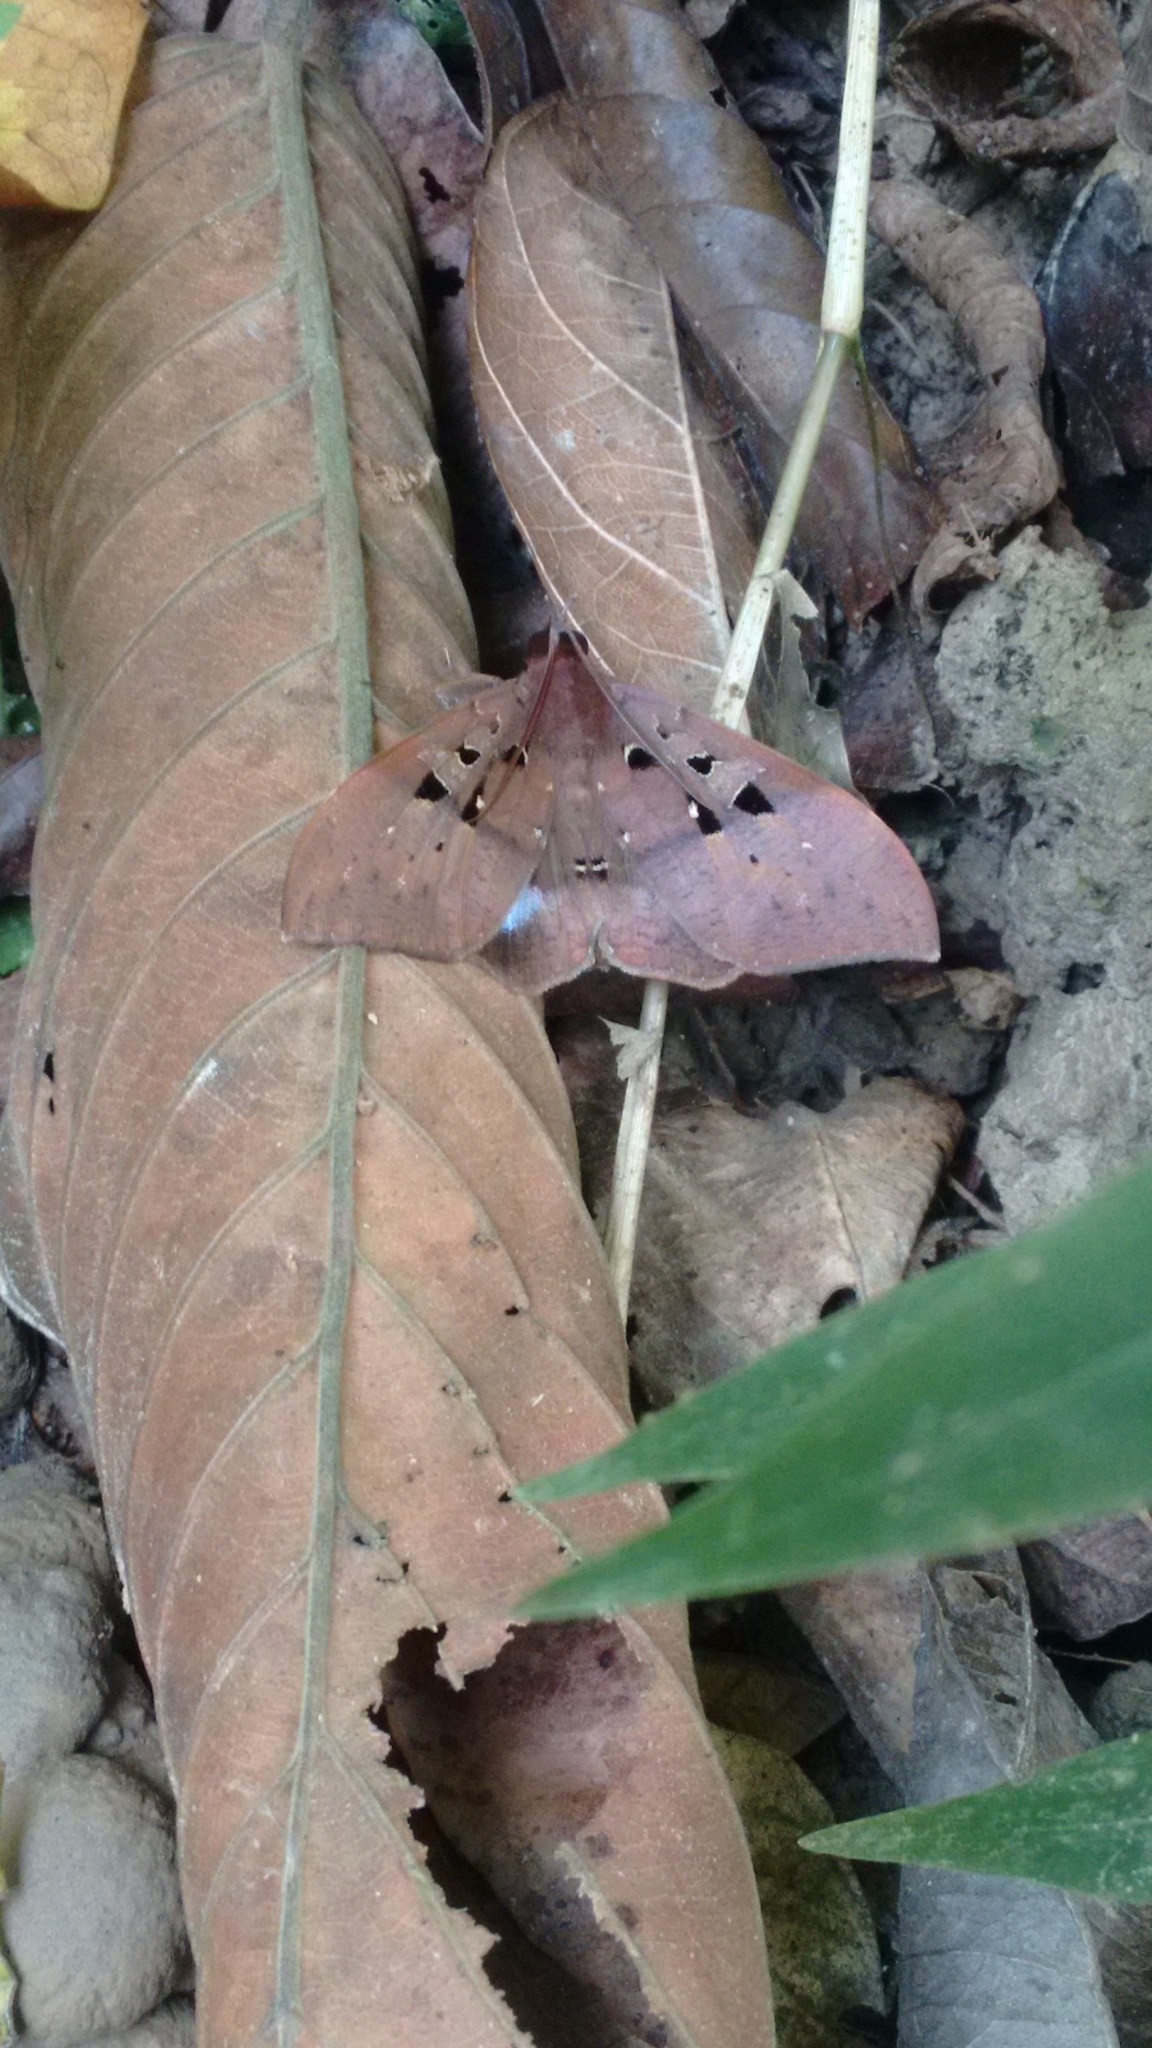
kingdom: Animalia
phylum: Arthropoda
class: Insecta
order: Lepidoptera
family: Erebidae
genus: Ischyja
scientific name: Ischyja marapok
